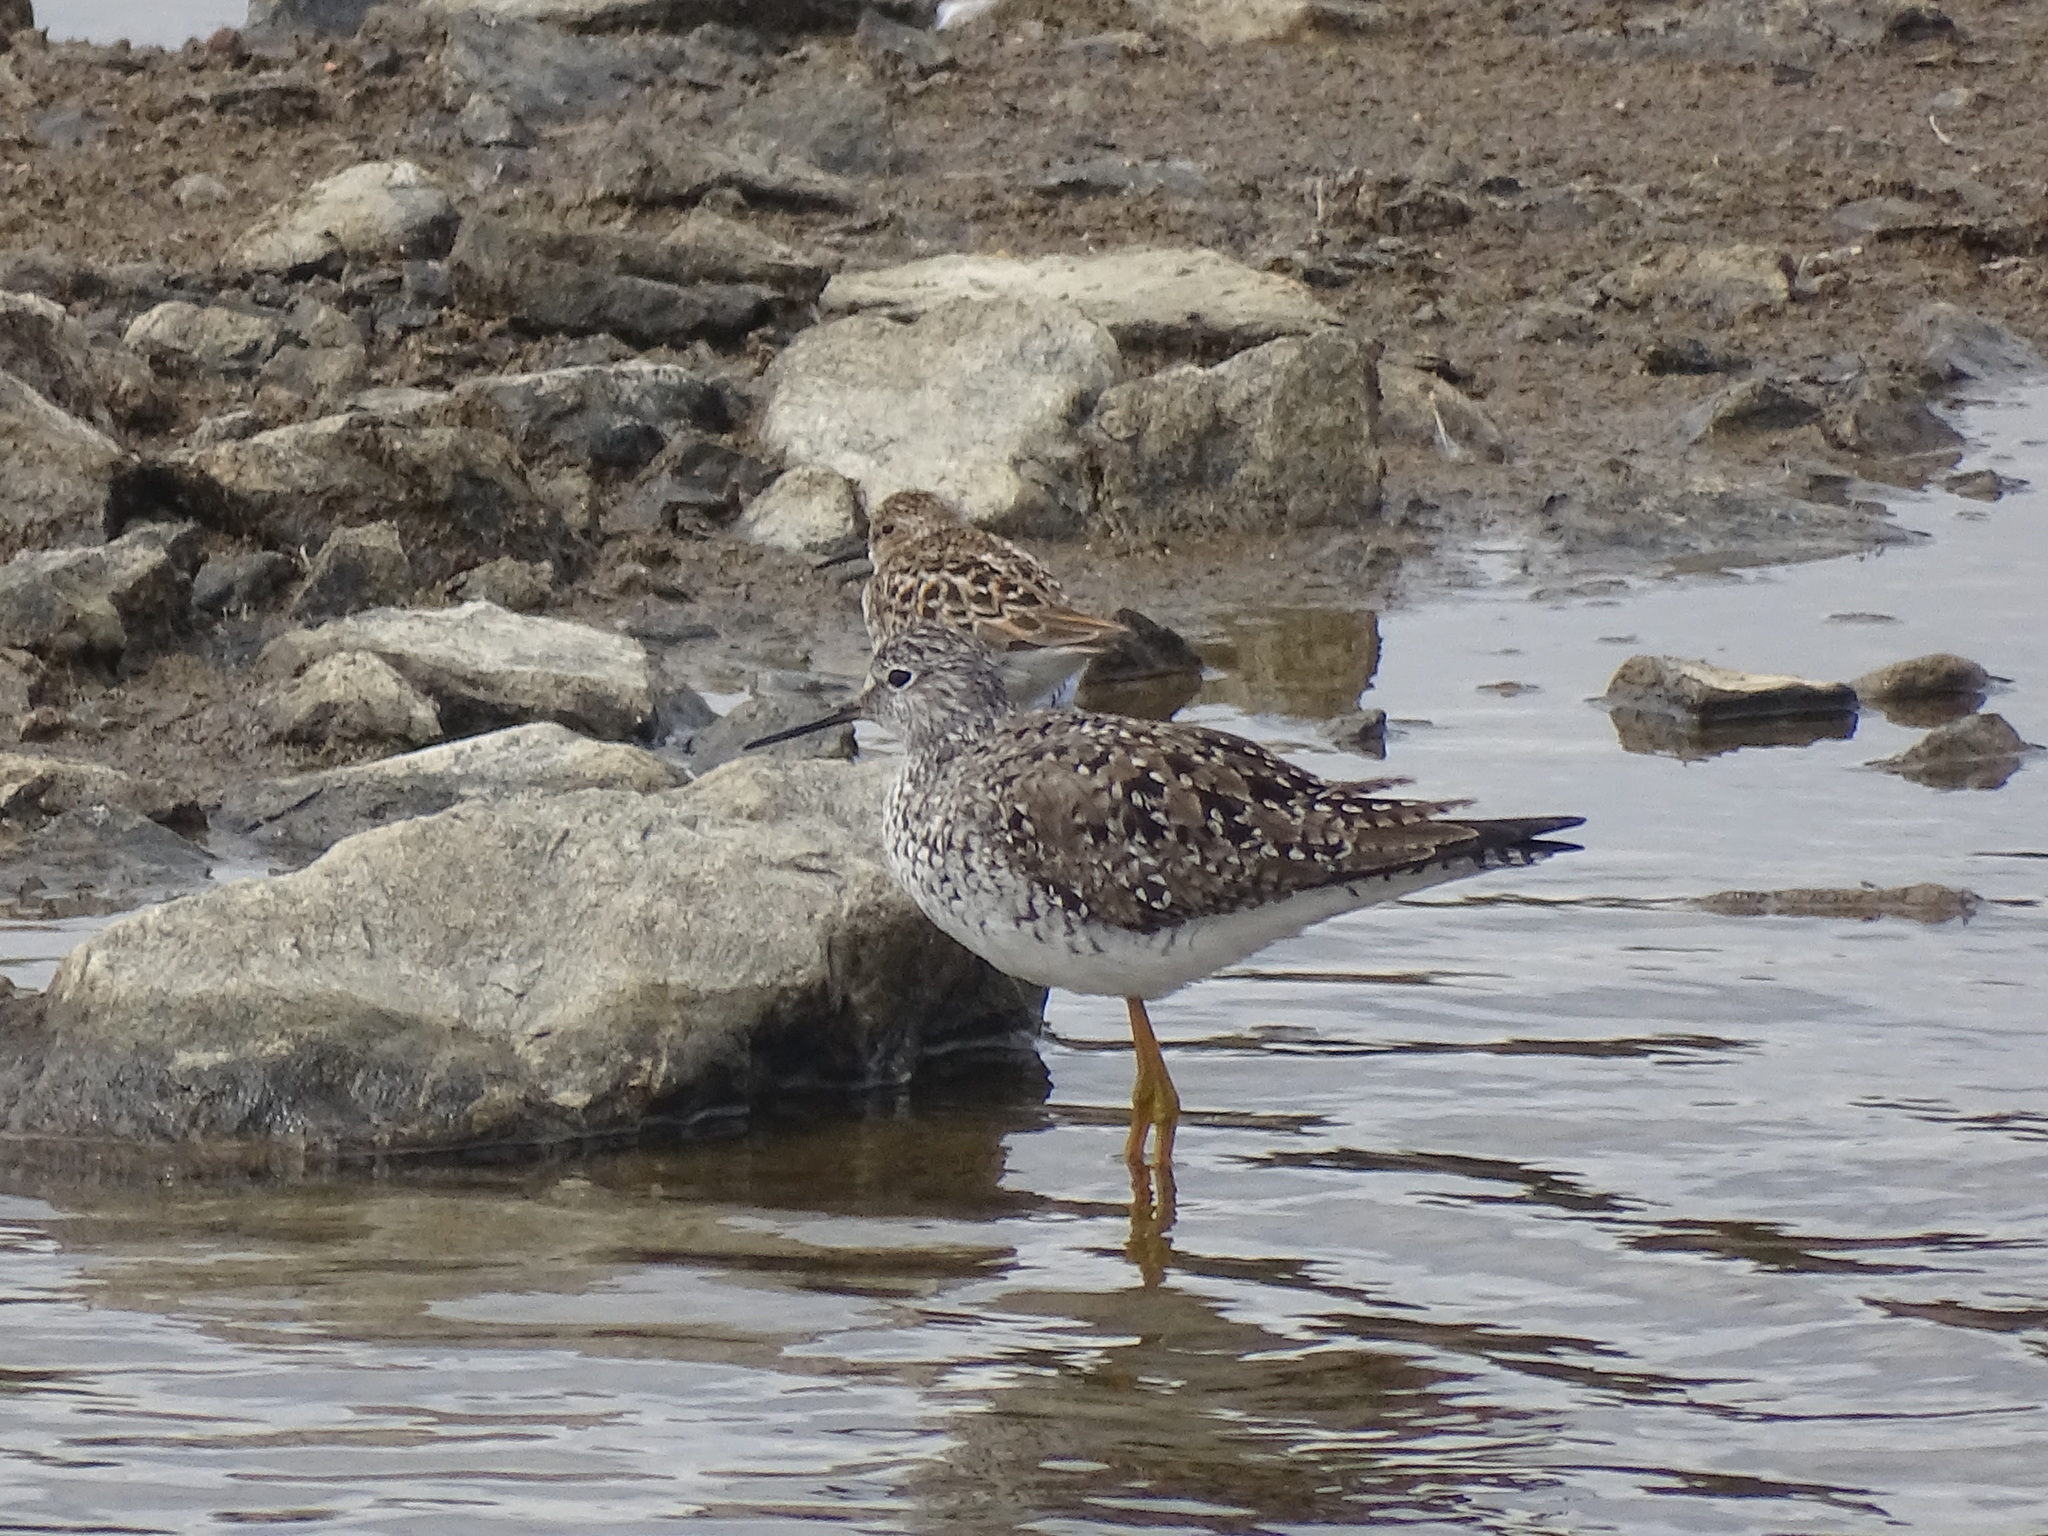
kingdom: Animalia
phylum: Chordata
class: Aves
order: Charadriiformes
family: Scolopacidae
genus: Tringa
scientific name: Tringa flavipes
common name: Lesser yellowlegs
